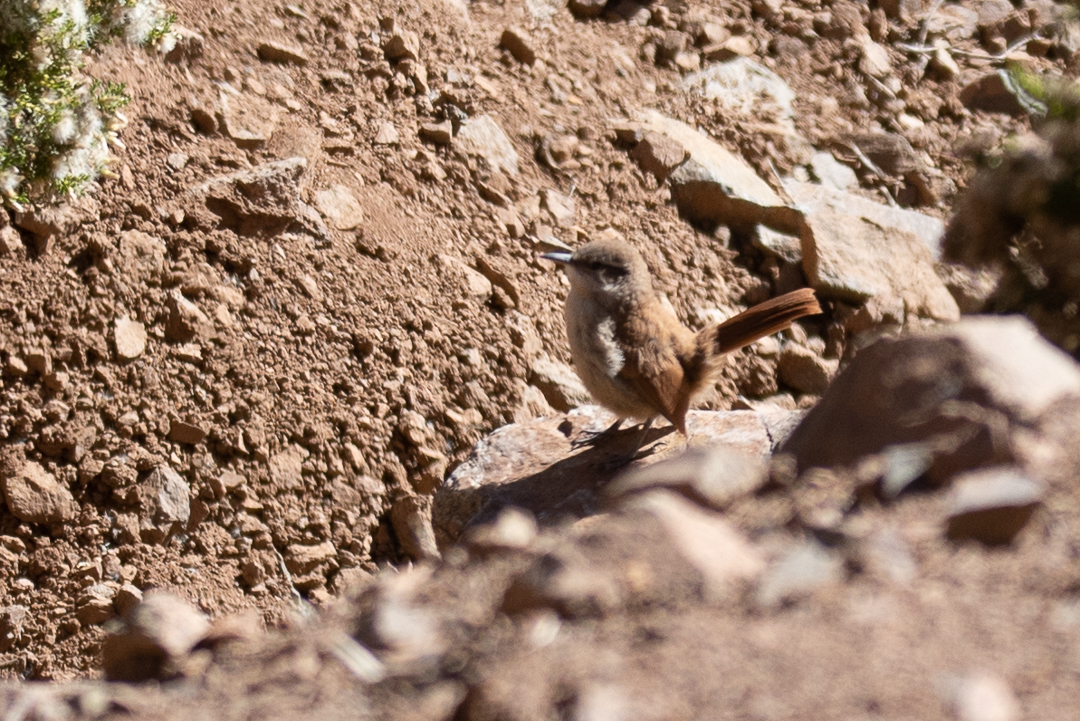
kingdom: Animalia
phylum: Chordata
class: Aves
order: Passeriformes
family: Furnariidae
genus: Asthenes
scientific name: Asthenes modesta
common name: Cordilleran canastero
